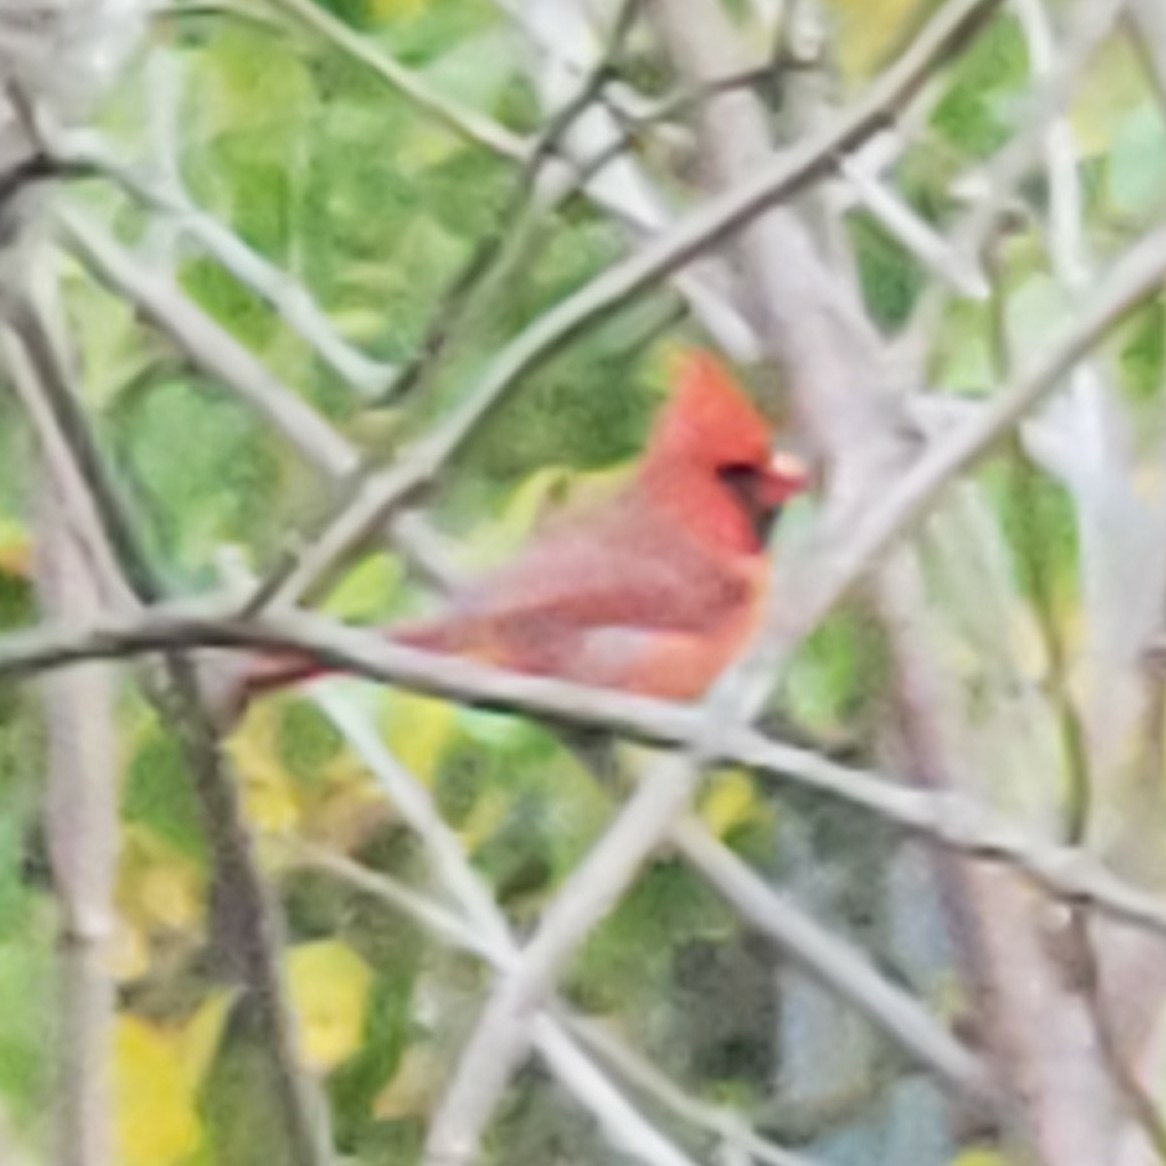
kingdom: Animalia
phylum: Chordata
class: Aves
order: Passeriformes
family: Cardinalidae
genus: Cardinalis
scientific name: Cardinalis cardinalis
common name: Northern cardinal
